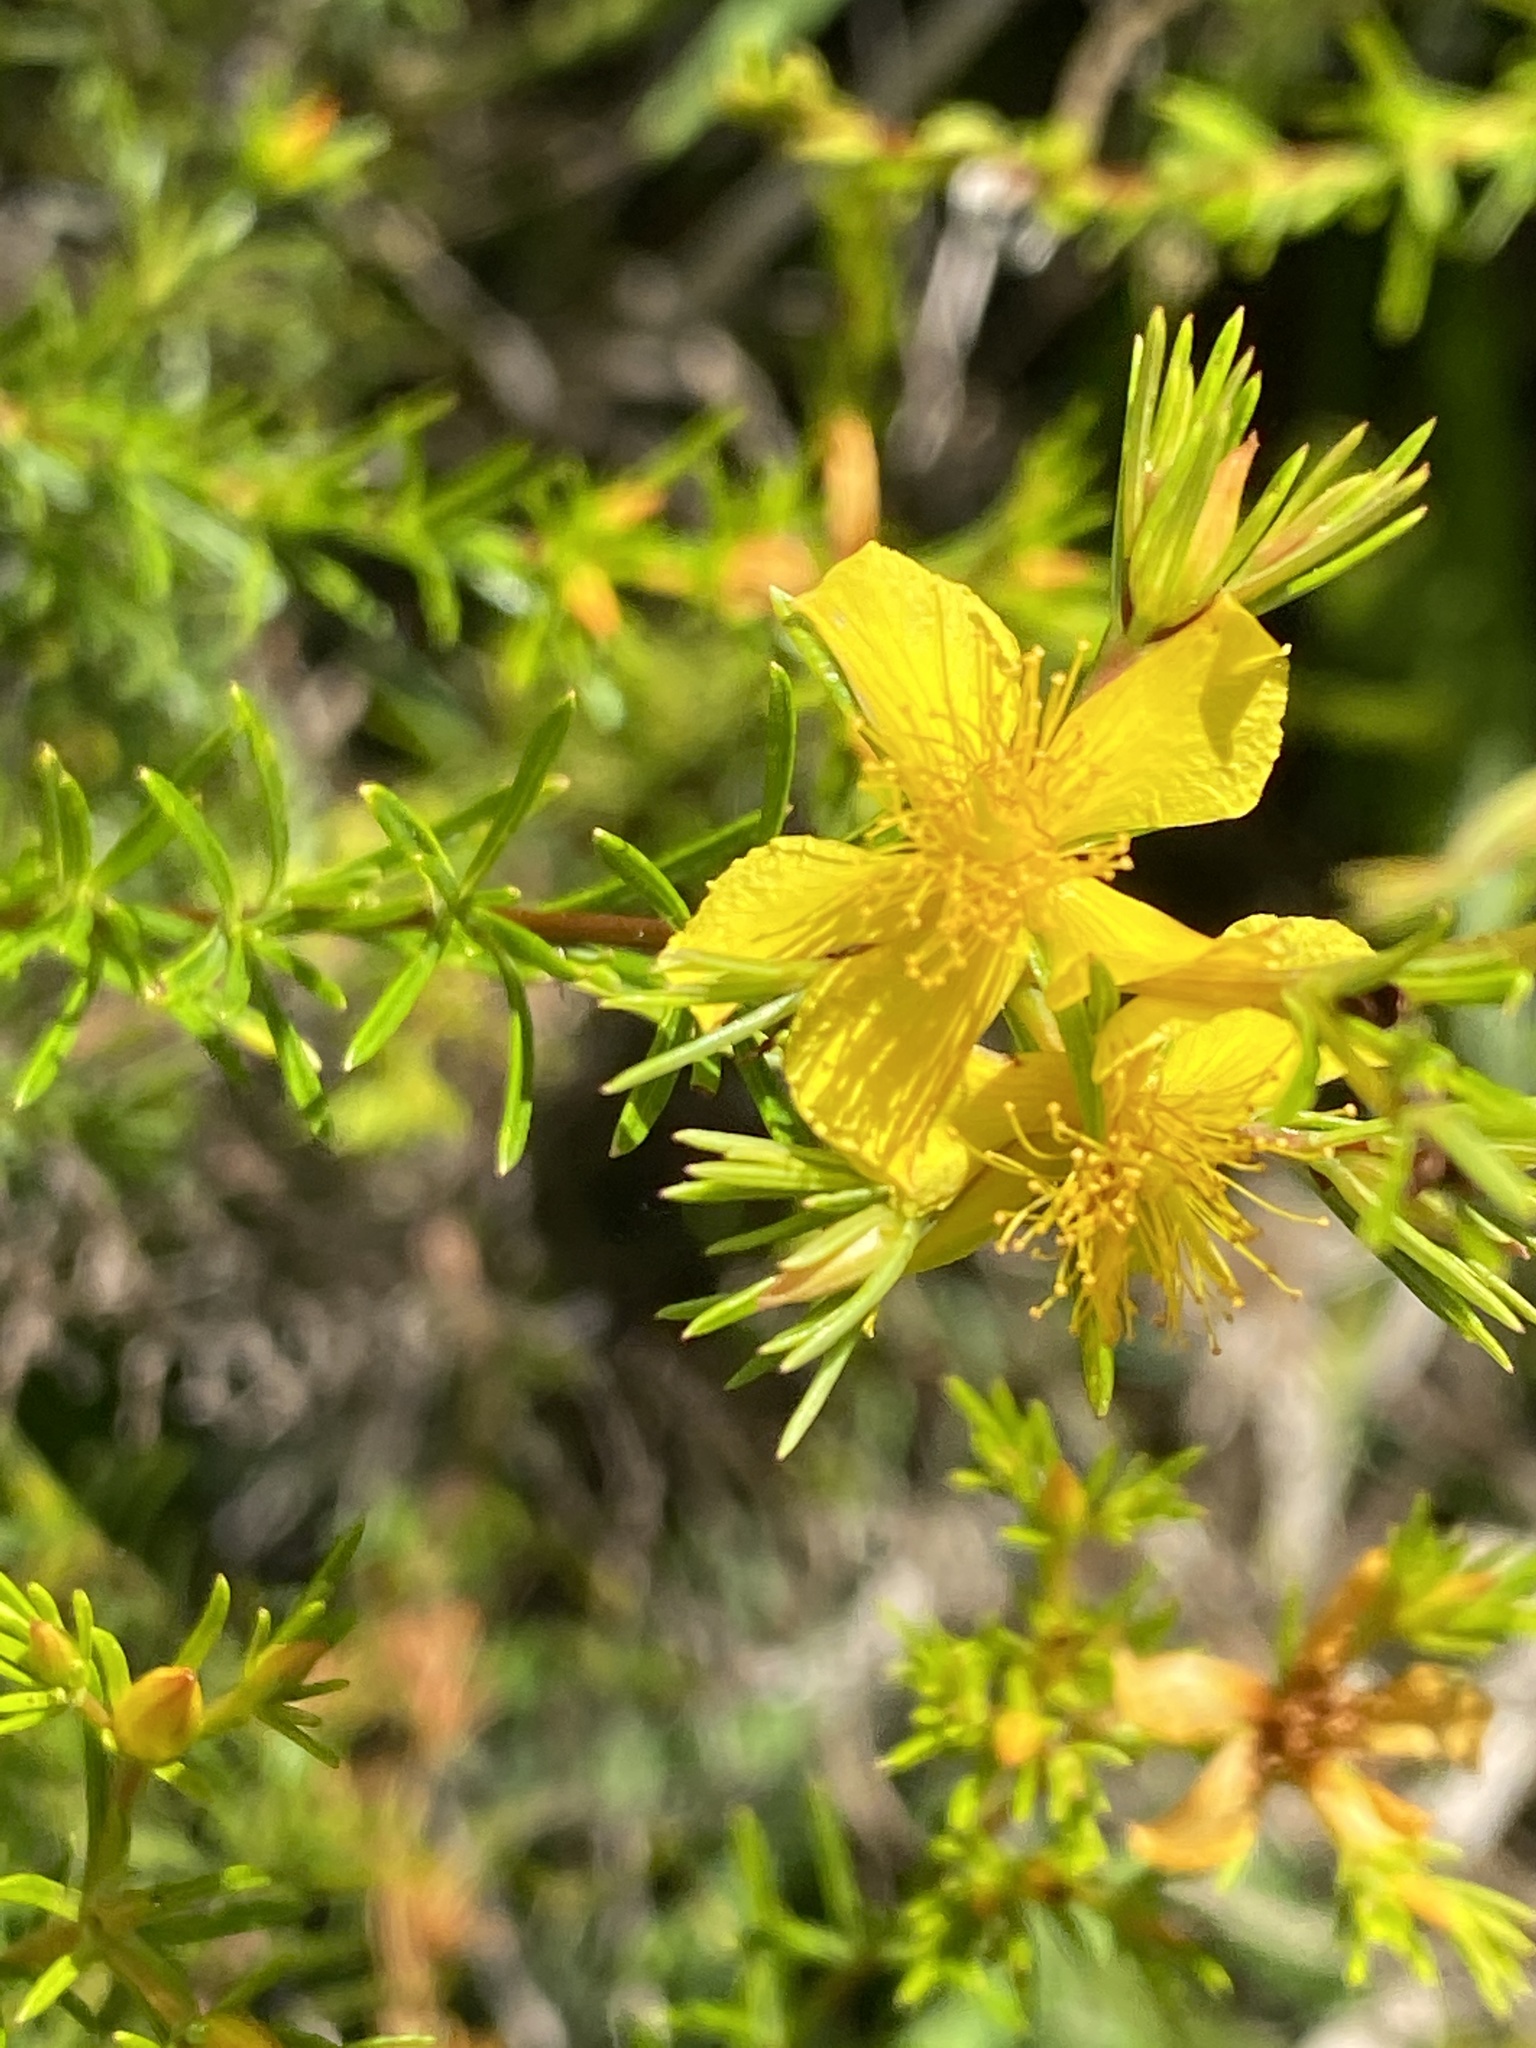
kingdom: Plantae
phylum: Tracheophyta
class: Magnoliopsida
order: Malpighiales
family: Hypericaceae
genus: Hypericum
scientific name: Hypericum fasciculatum
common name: Peelbark st. john's wort
